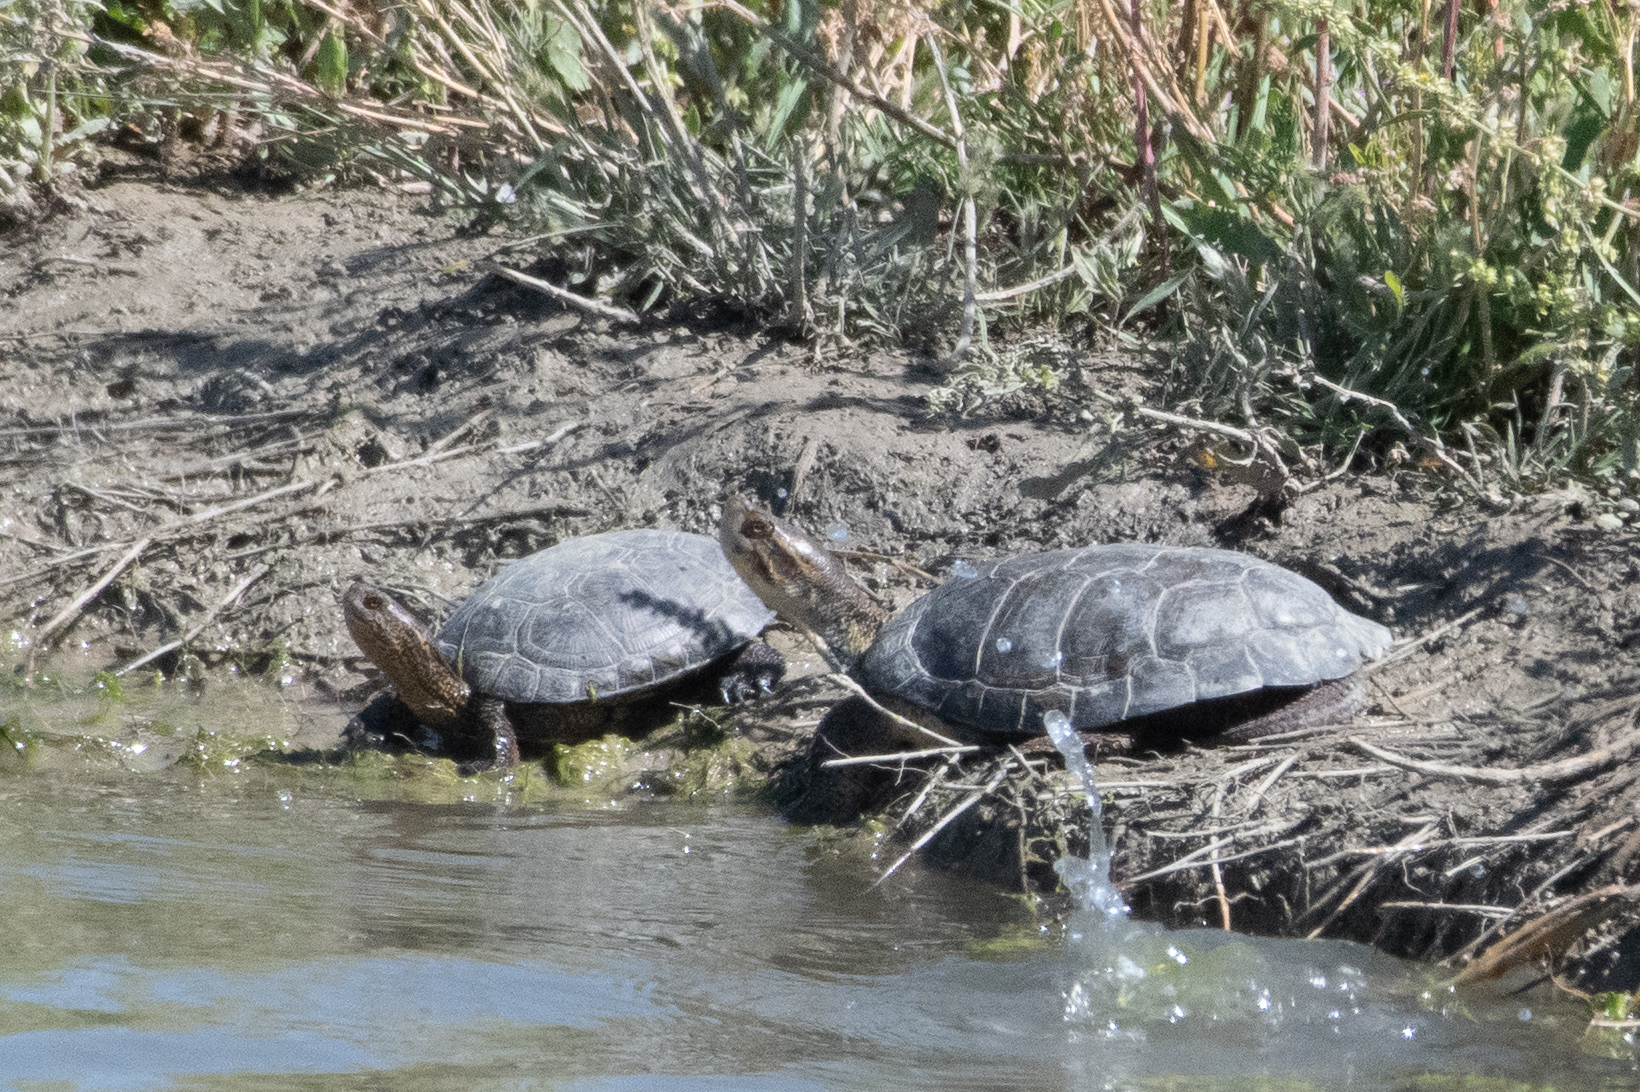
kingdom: Animalia
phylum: Chordata
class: Testudines
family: Emydidae
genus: Actinemys
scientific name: Actinemys marmorata
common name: Western pond turtle
